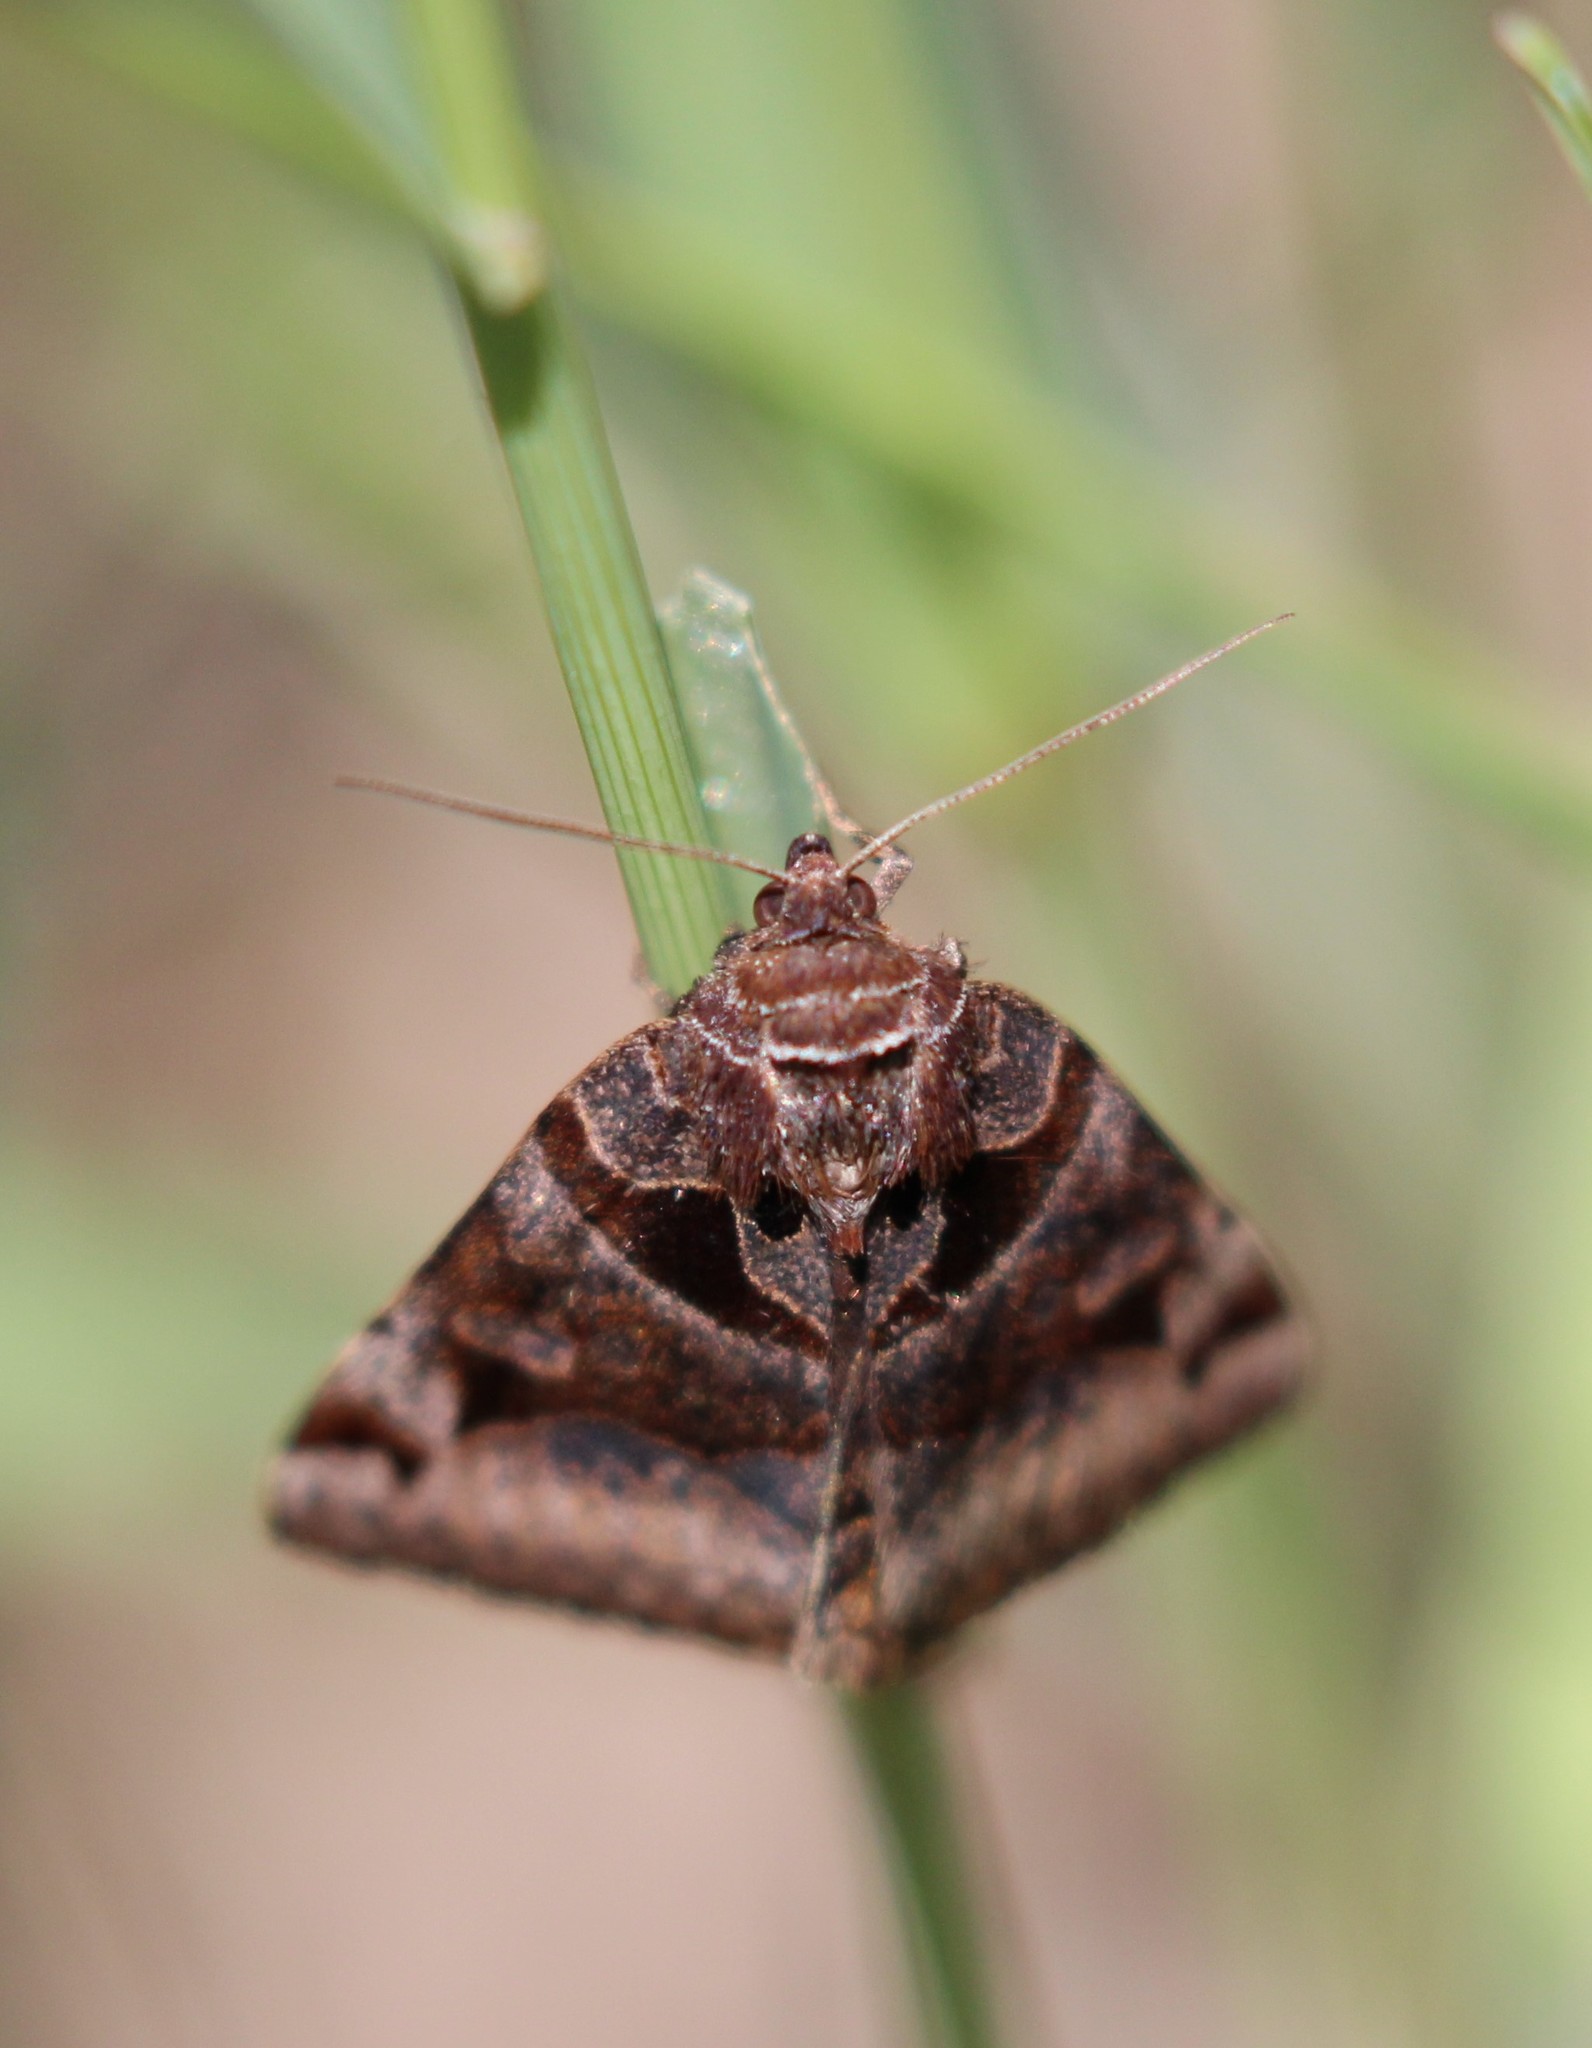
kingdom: Animalia
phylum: Arthropoda
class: Insecta
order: Lepidoptera
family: Erebidae
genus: Euclidia
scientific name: Euclidia cuspidea
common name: Toothed somberwing
